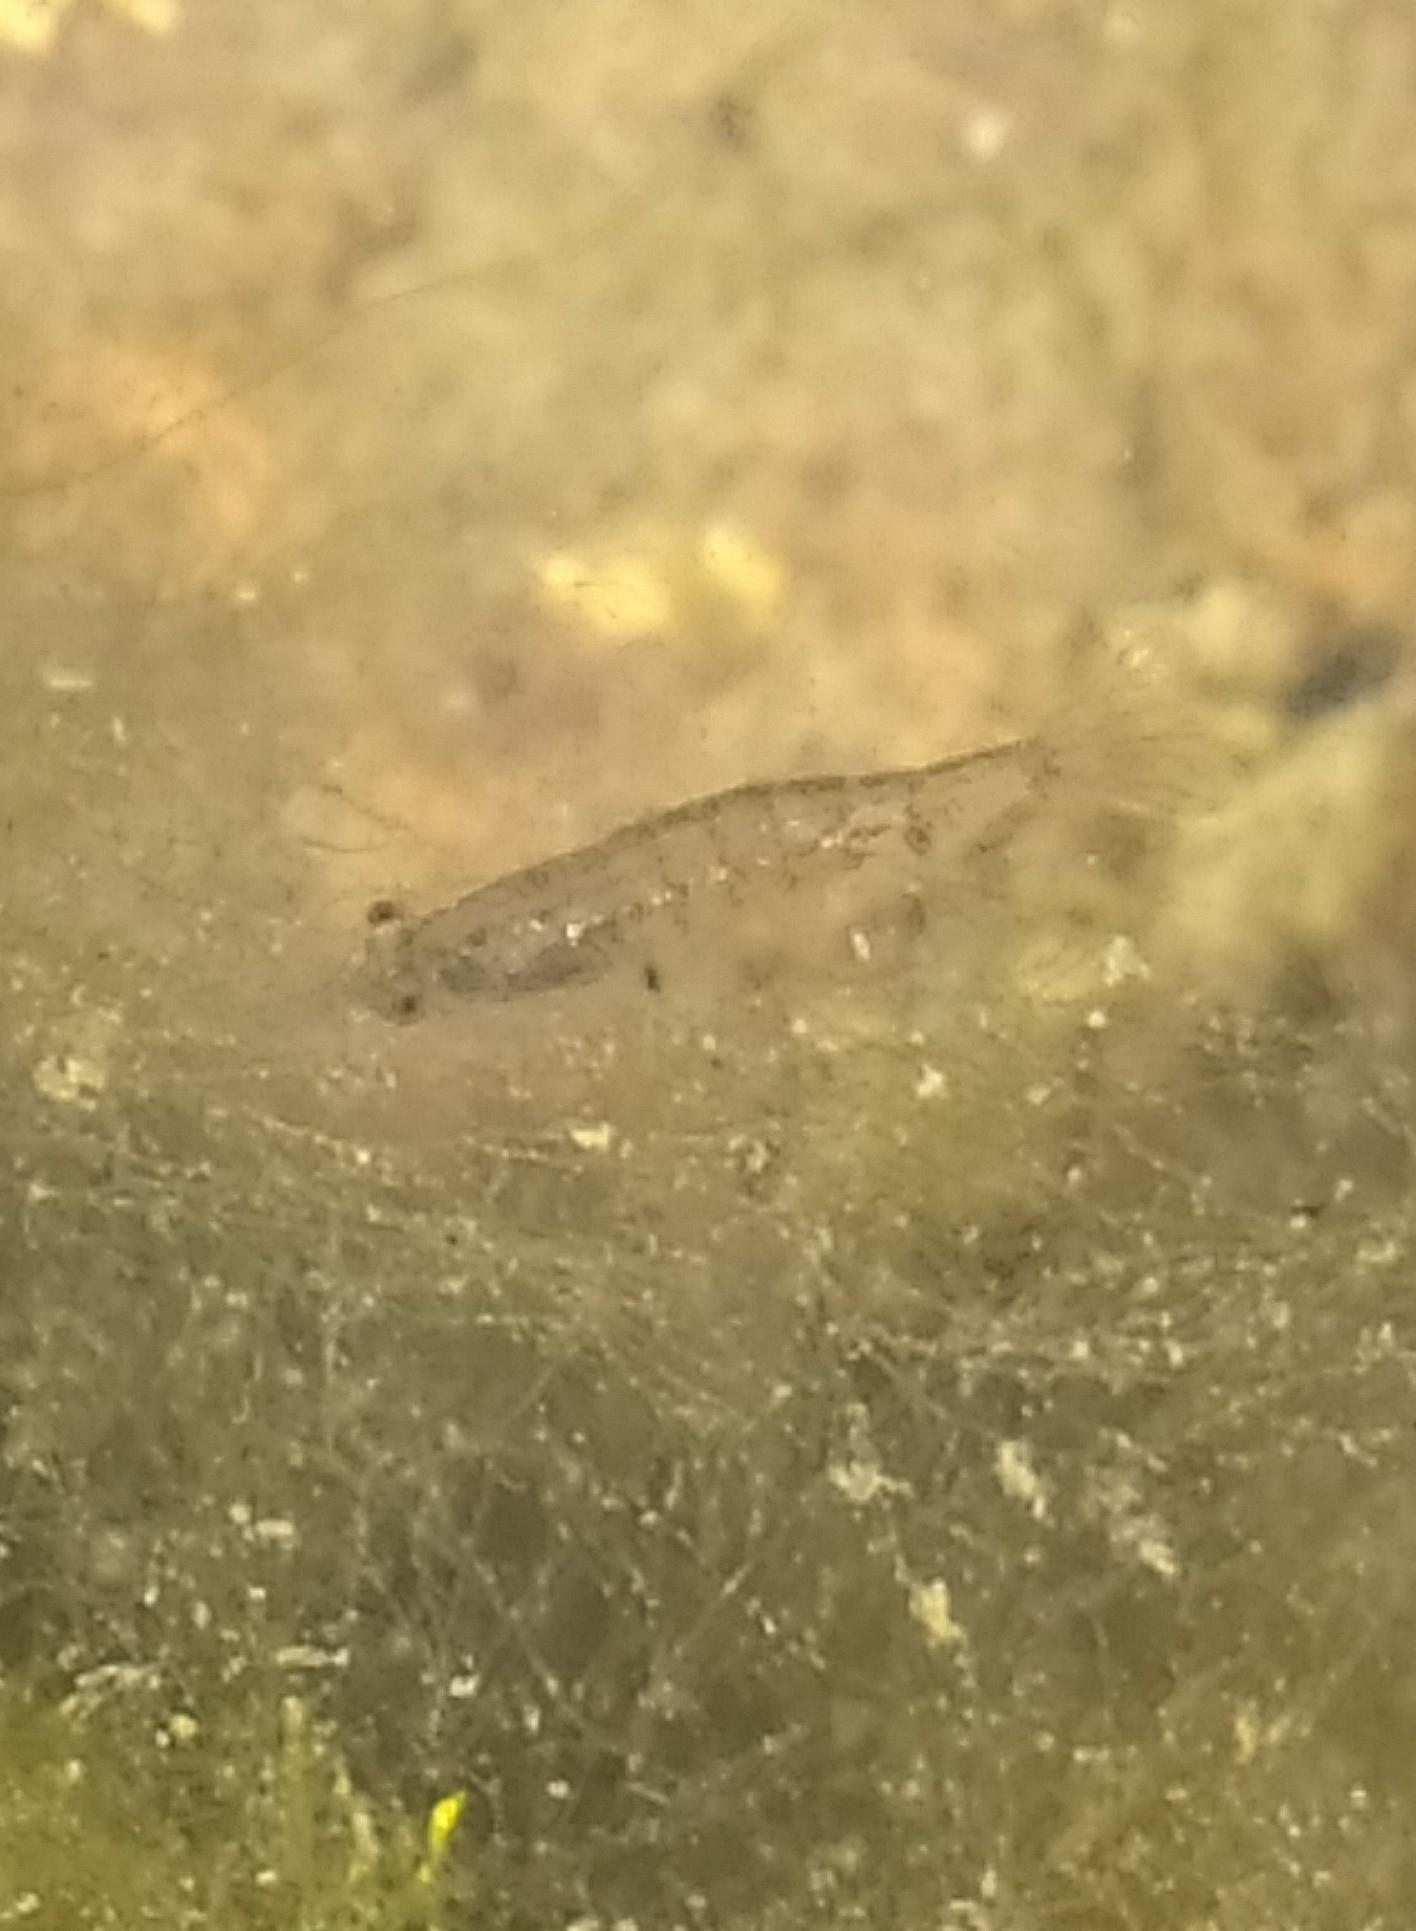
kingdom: Animalia
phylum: Arthropoda
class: Malacostraca
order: Decapoda
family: Atyidae
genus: Atyaephyra
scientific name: Atyaephyra desmarestii
